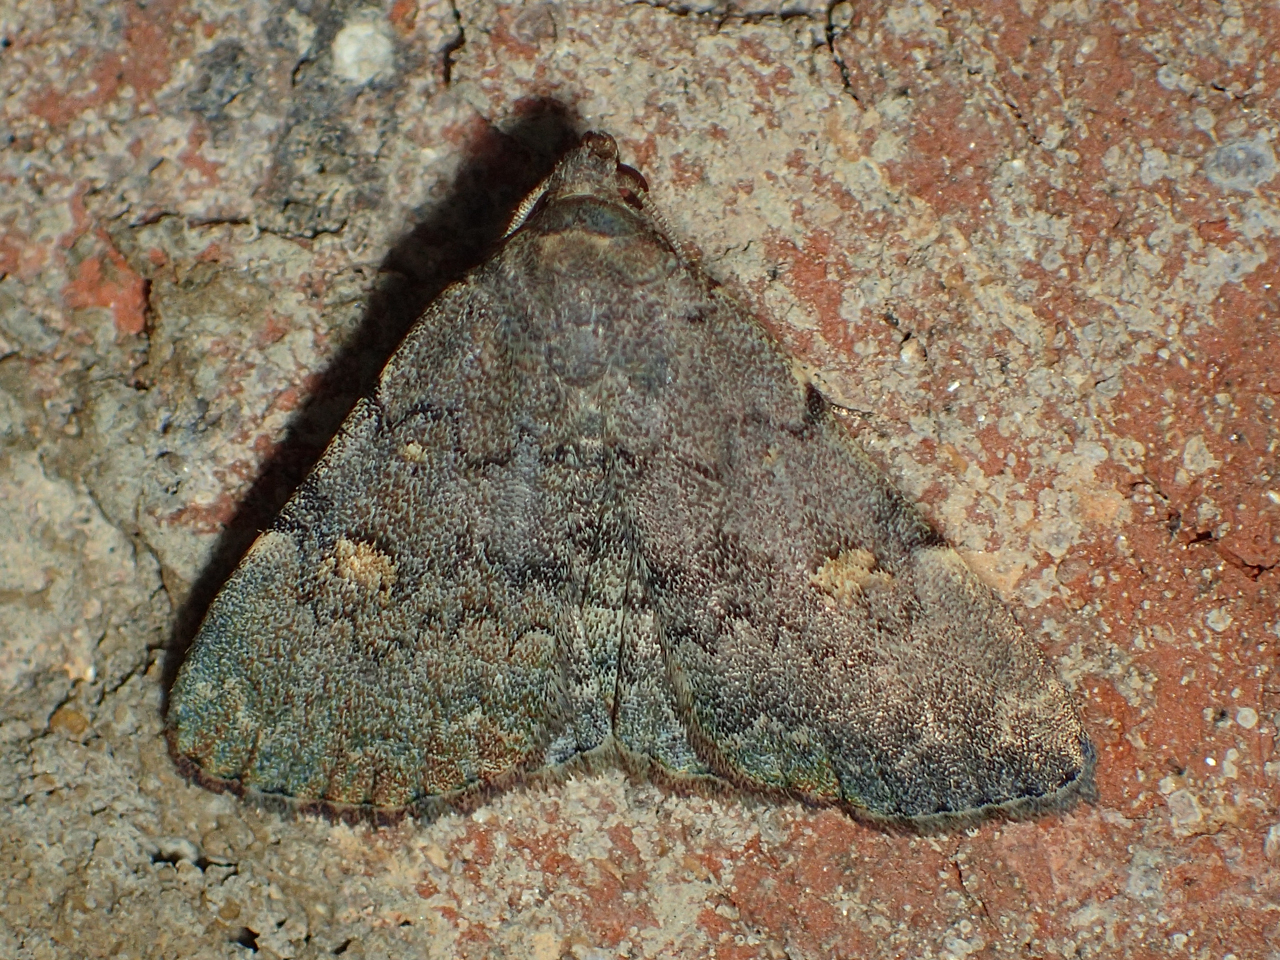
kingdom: Animalia
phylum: Arthropoda
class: Insecta
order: Lepidoptera
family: Erebidae
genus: Idia
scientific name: Idia aemula
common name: Common idia moth
